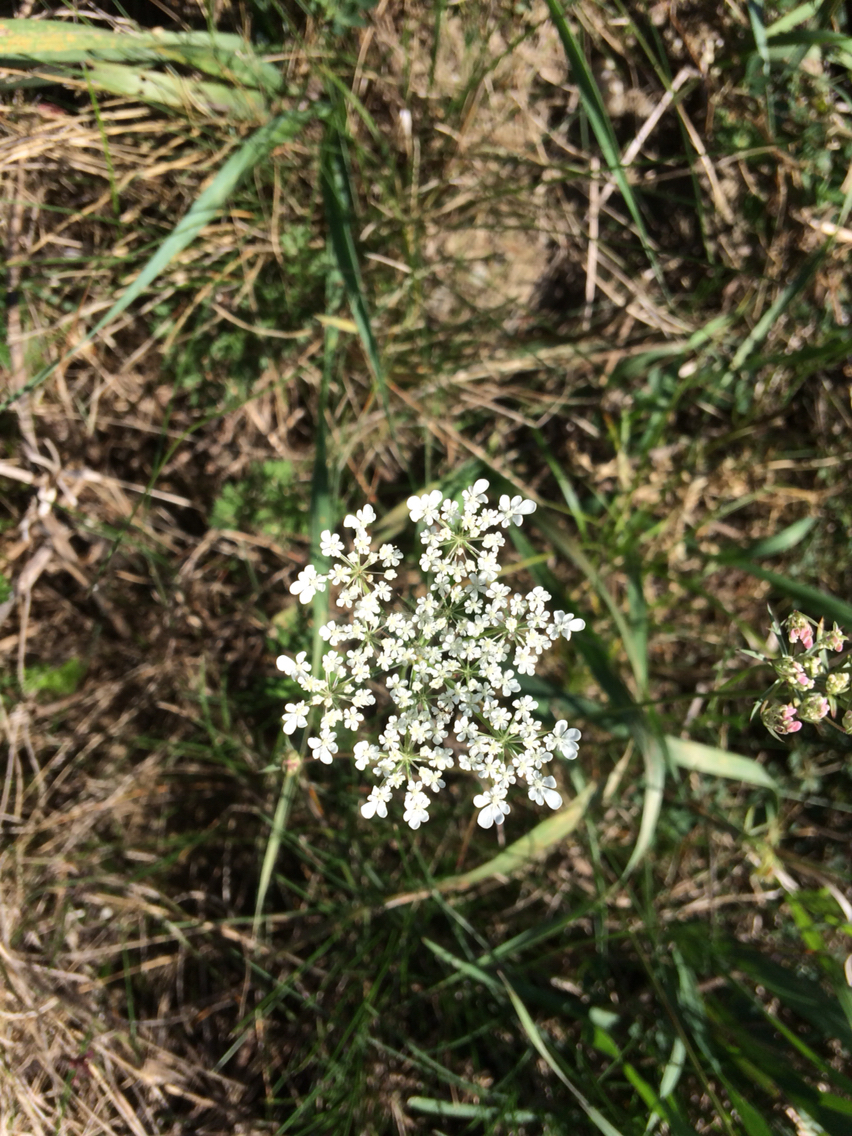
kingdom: Plantae
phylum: Tracheophyta
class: Magnoliopsida
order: Apiales
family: Apiaceae
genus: Daucus
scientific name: Daucus carota
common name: Wild carrot
